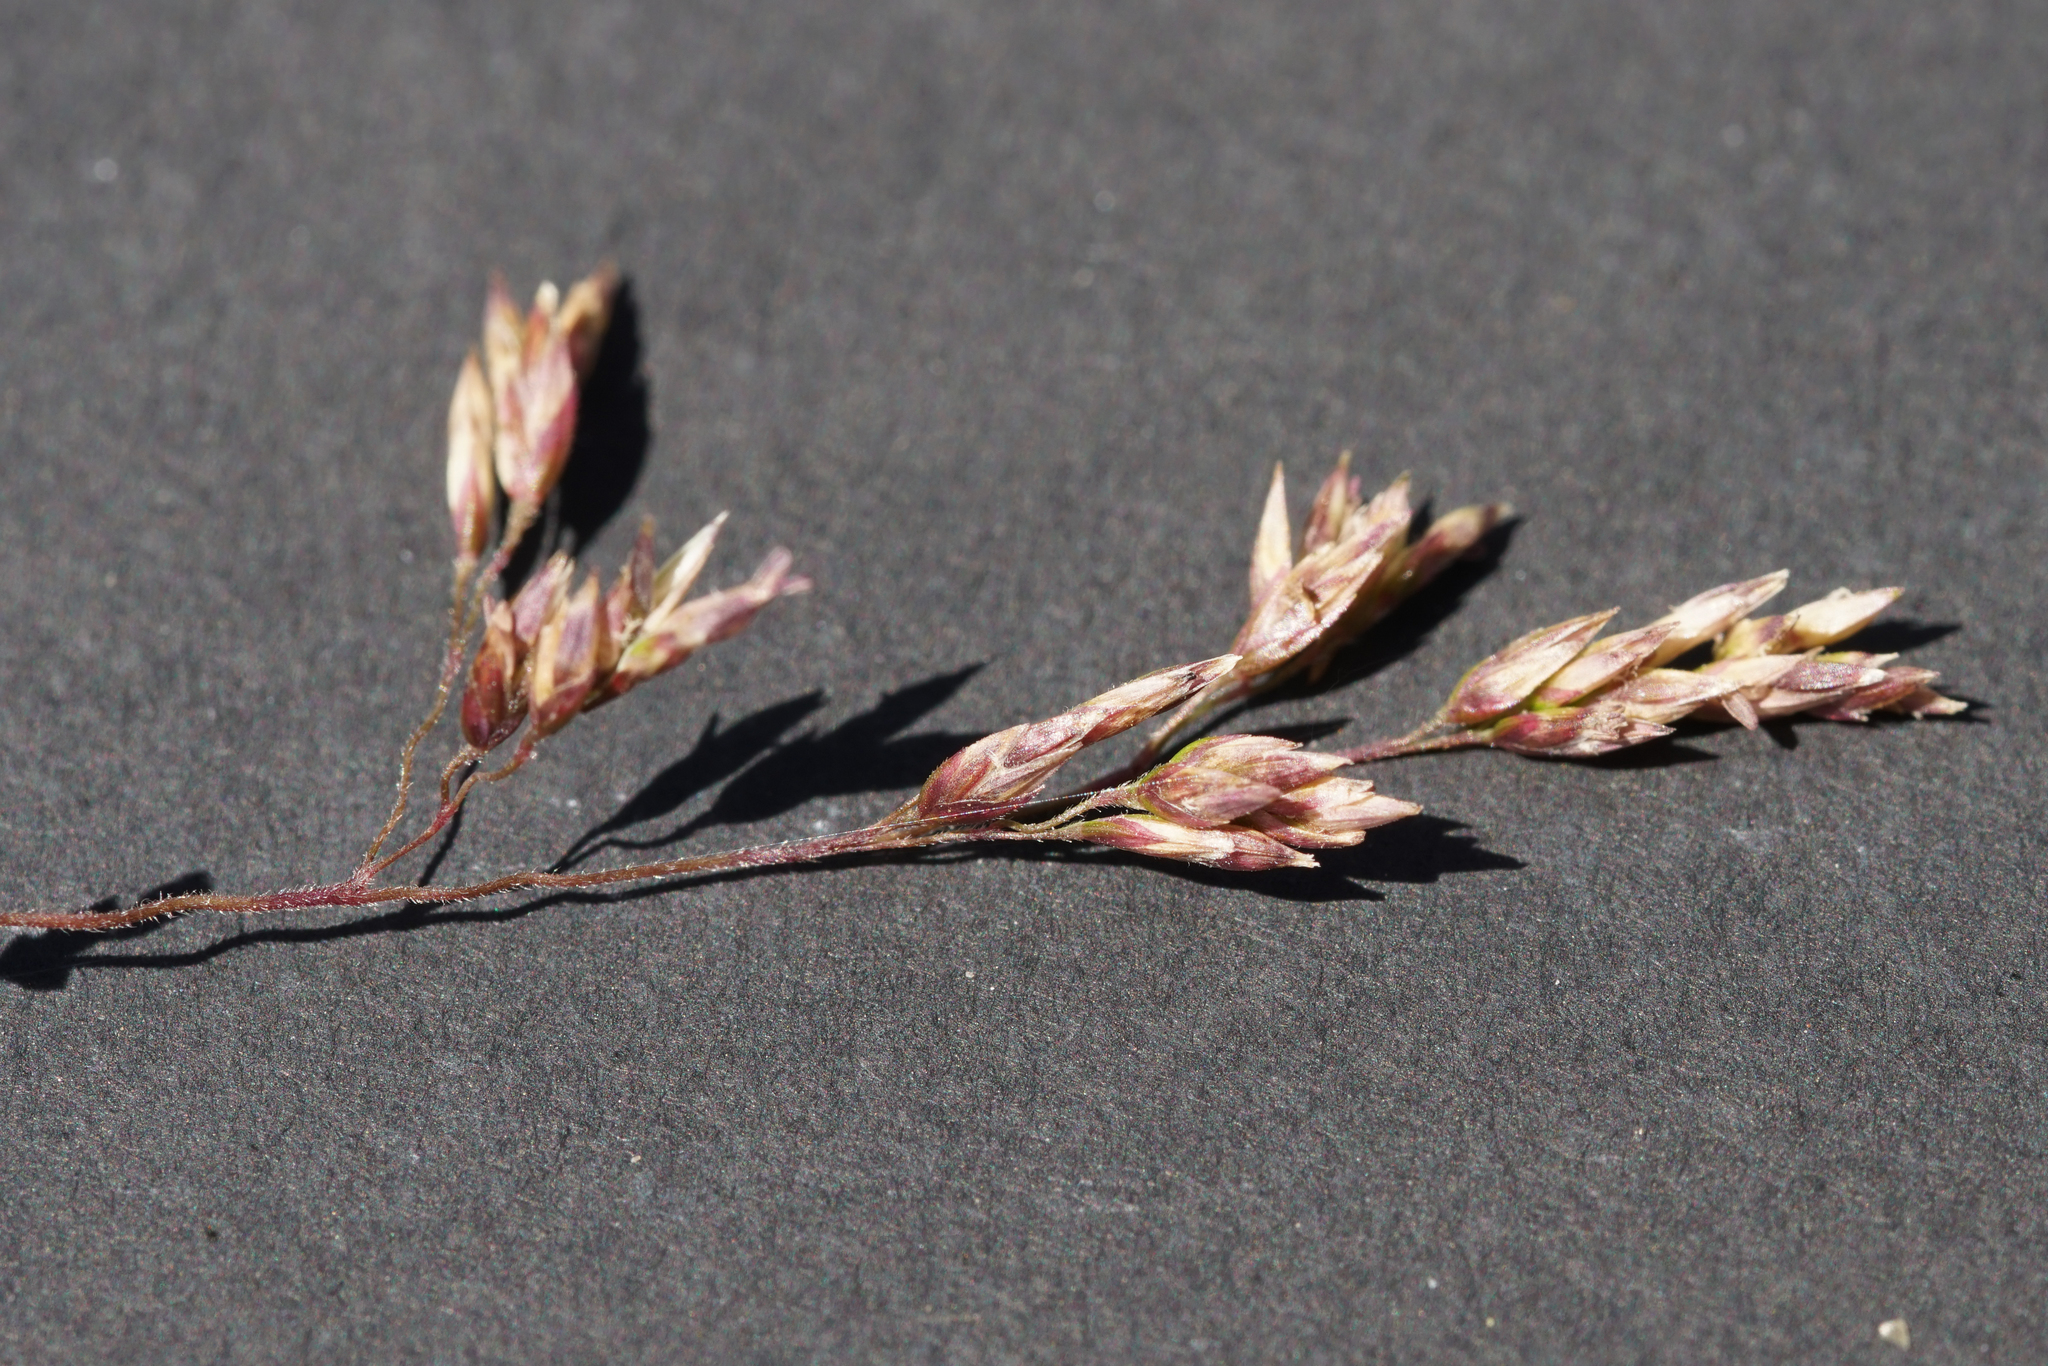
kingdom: Plantae
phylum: Tracheophyta
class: Liliopsida
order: Poales
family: Poaceae
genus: Poa
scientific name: Poa morrisii
